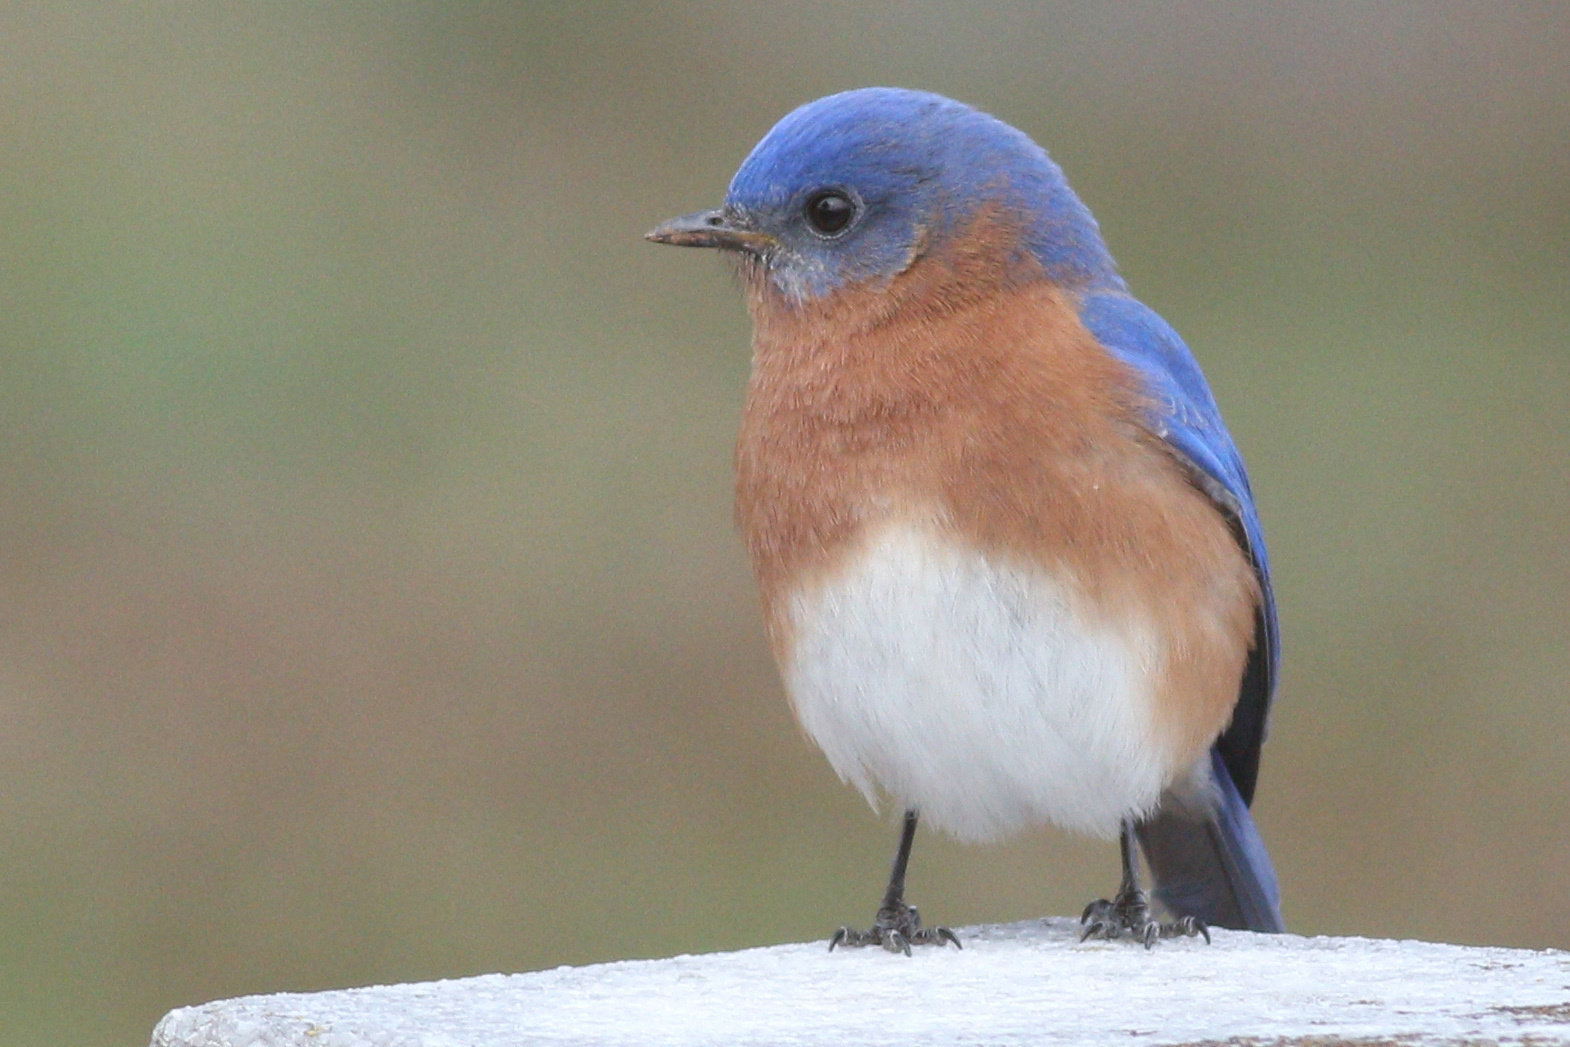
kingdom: Animalia
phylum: Chordata
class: Aves
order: Passeriformes
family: Turdidae
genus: Sialia
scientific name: Sialia sialis
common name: Eastern bluebird
